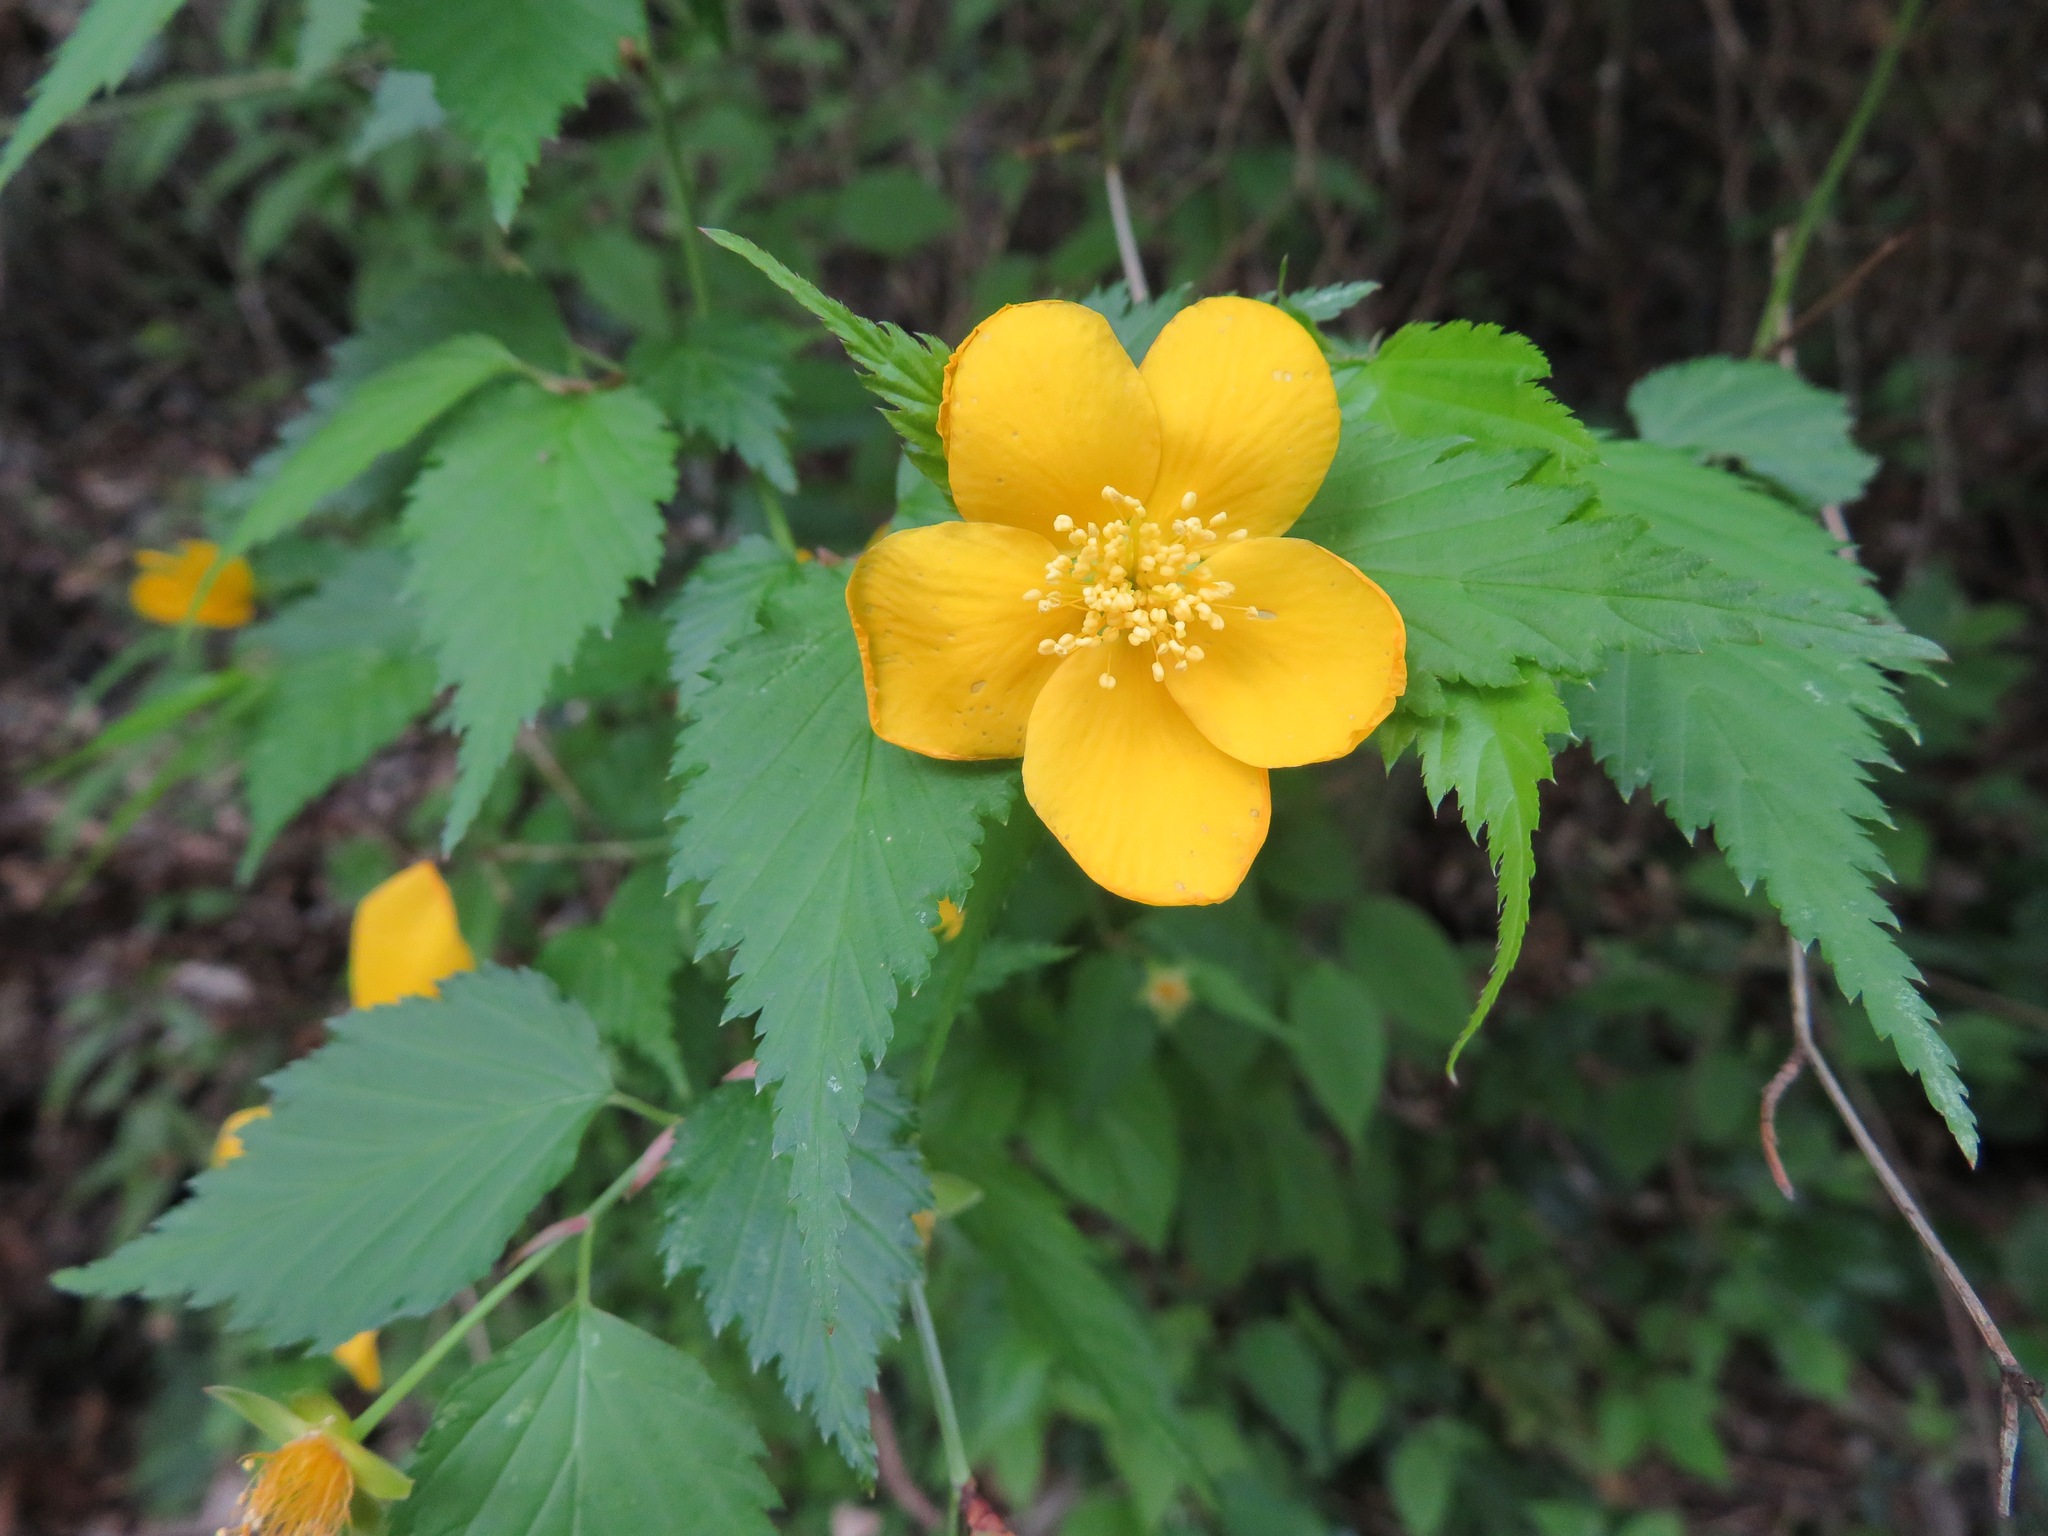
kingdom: Plantae
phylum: Tracheophyta
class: Magnoliopsida
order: Rosales
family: Rosaceae
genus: Kerria
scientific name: Kerria japonica
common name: Japanese kerria
